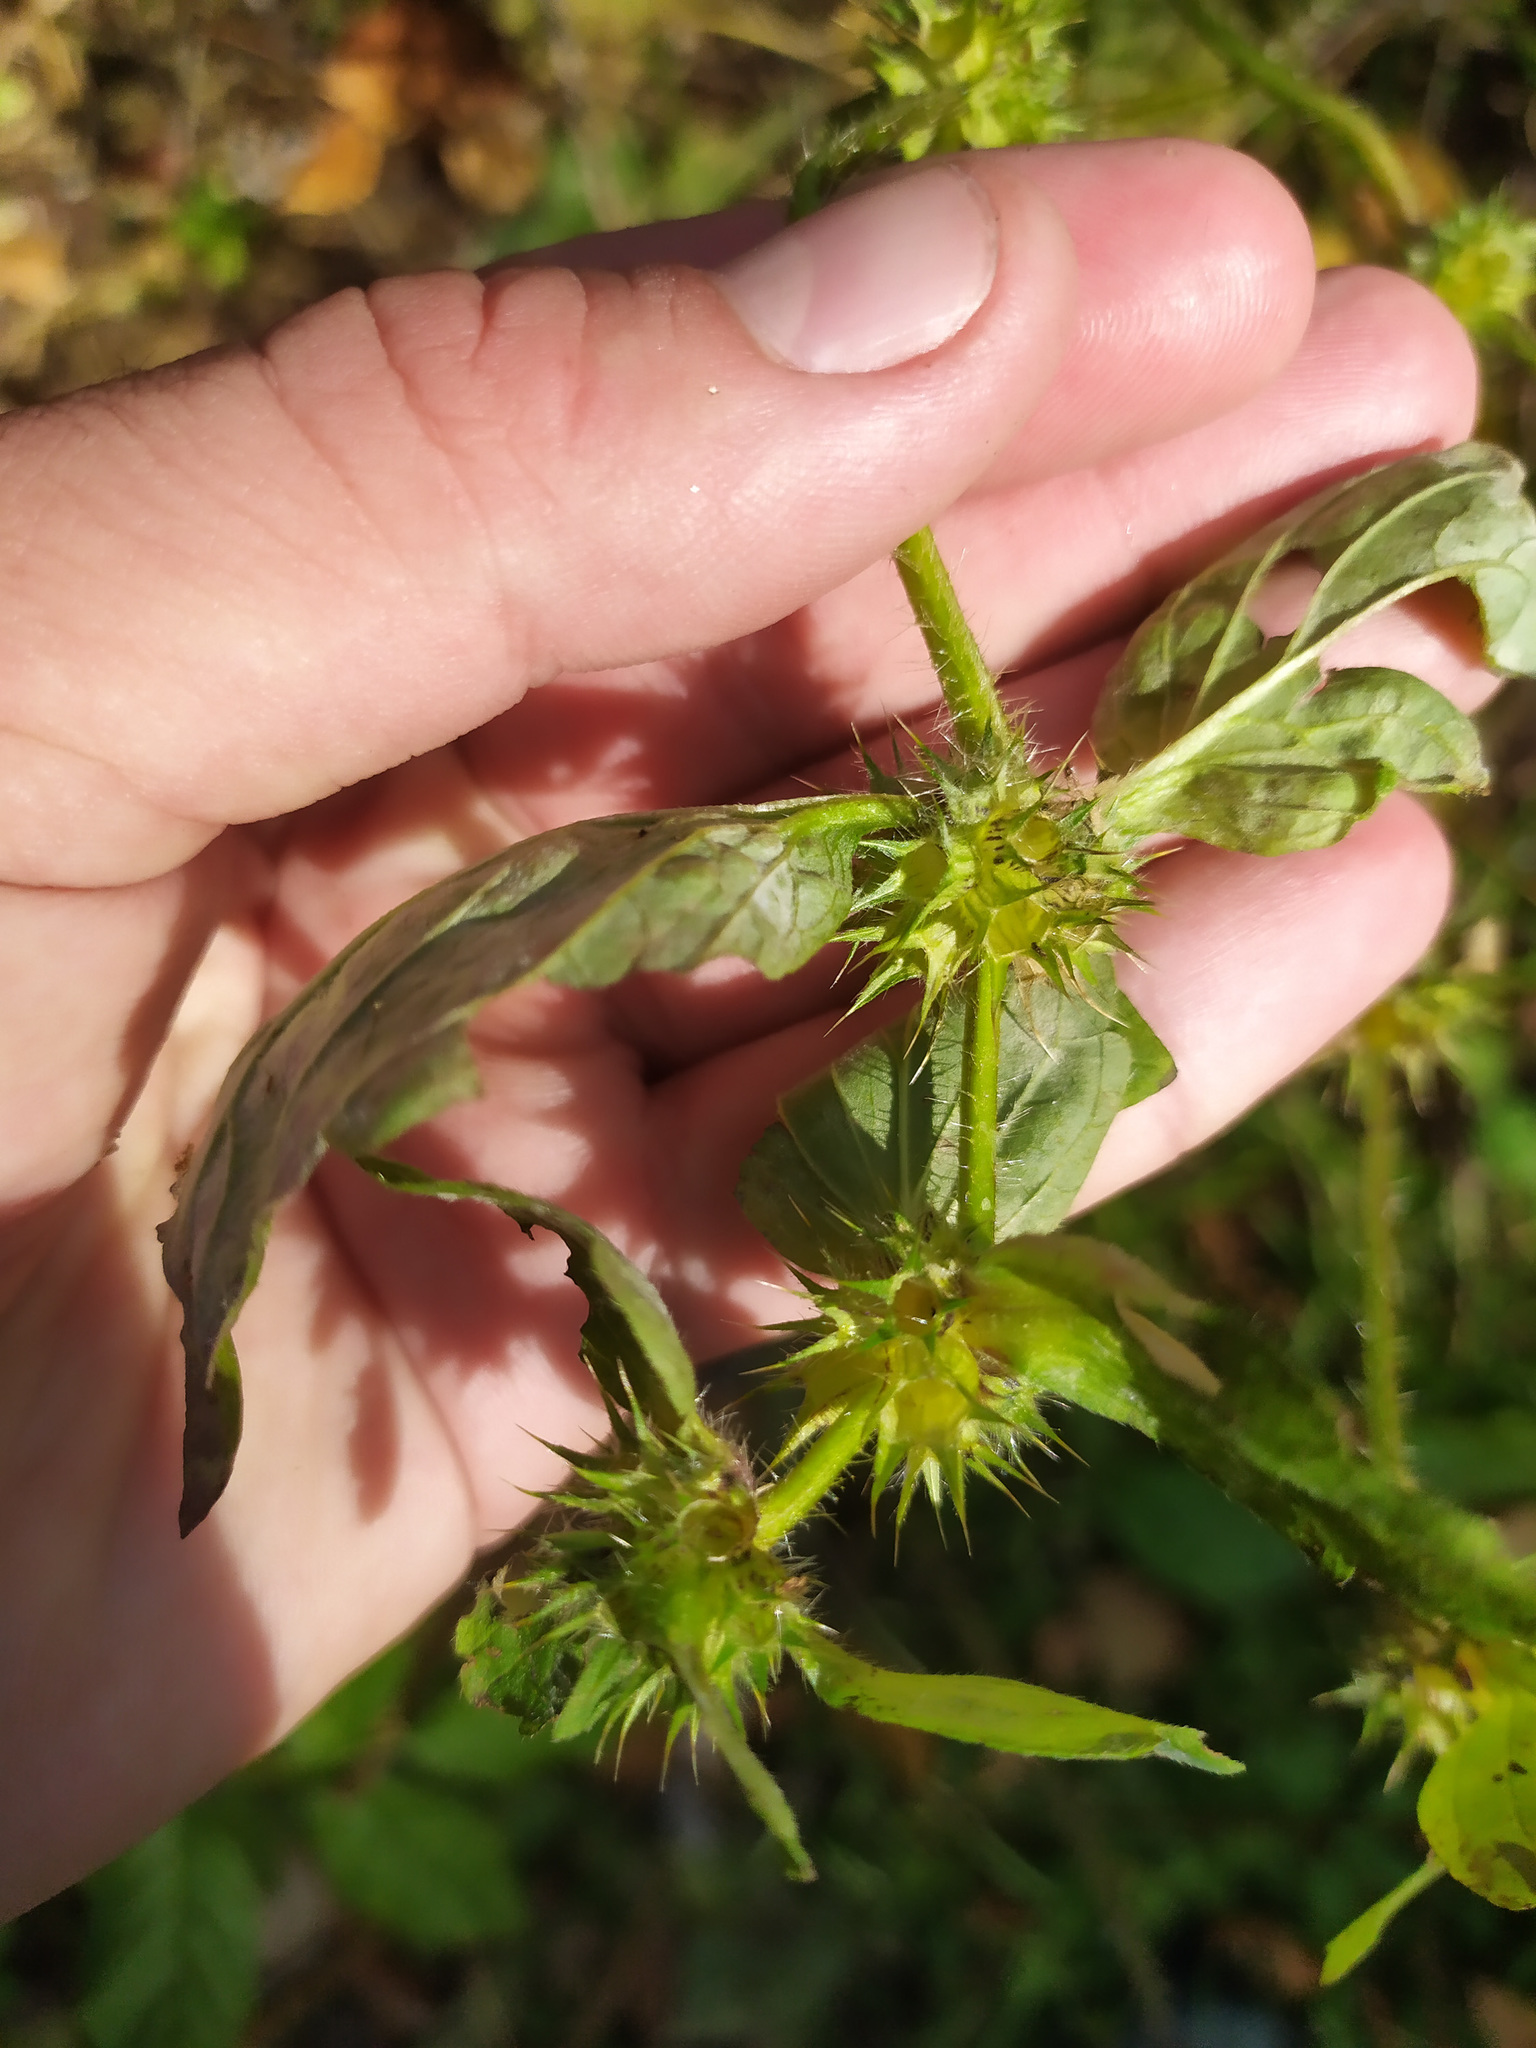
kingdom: Plantae
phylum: Tracheophyta
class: Magnoliopsida
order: Lamiales
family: Lamiaceae
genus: Galeopsis
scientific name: Galeopsis
